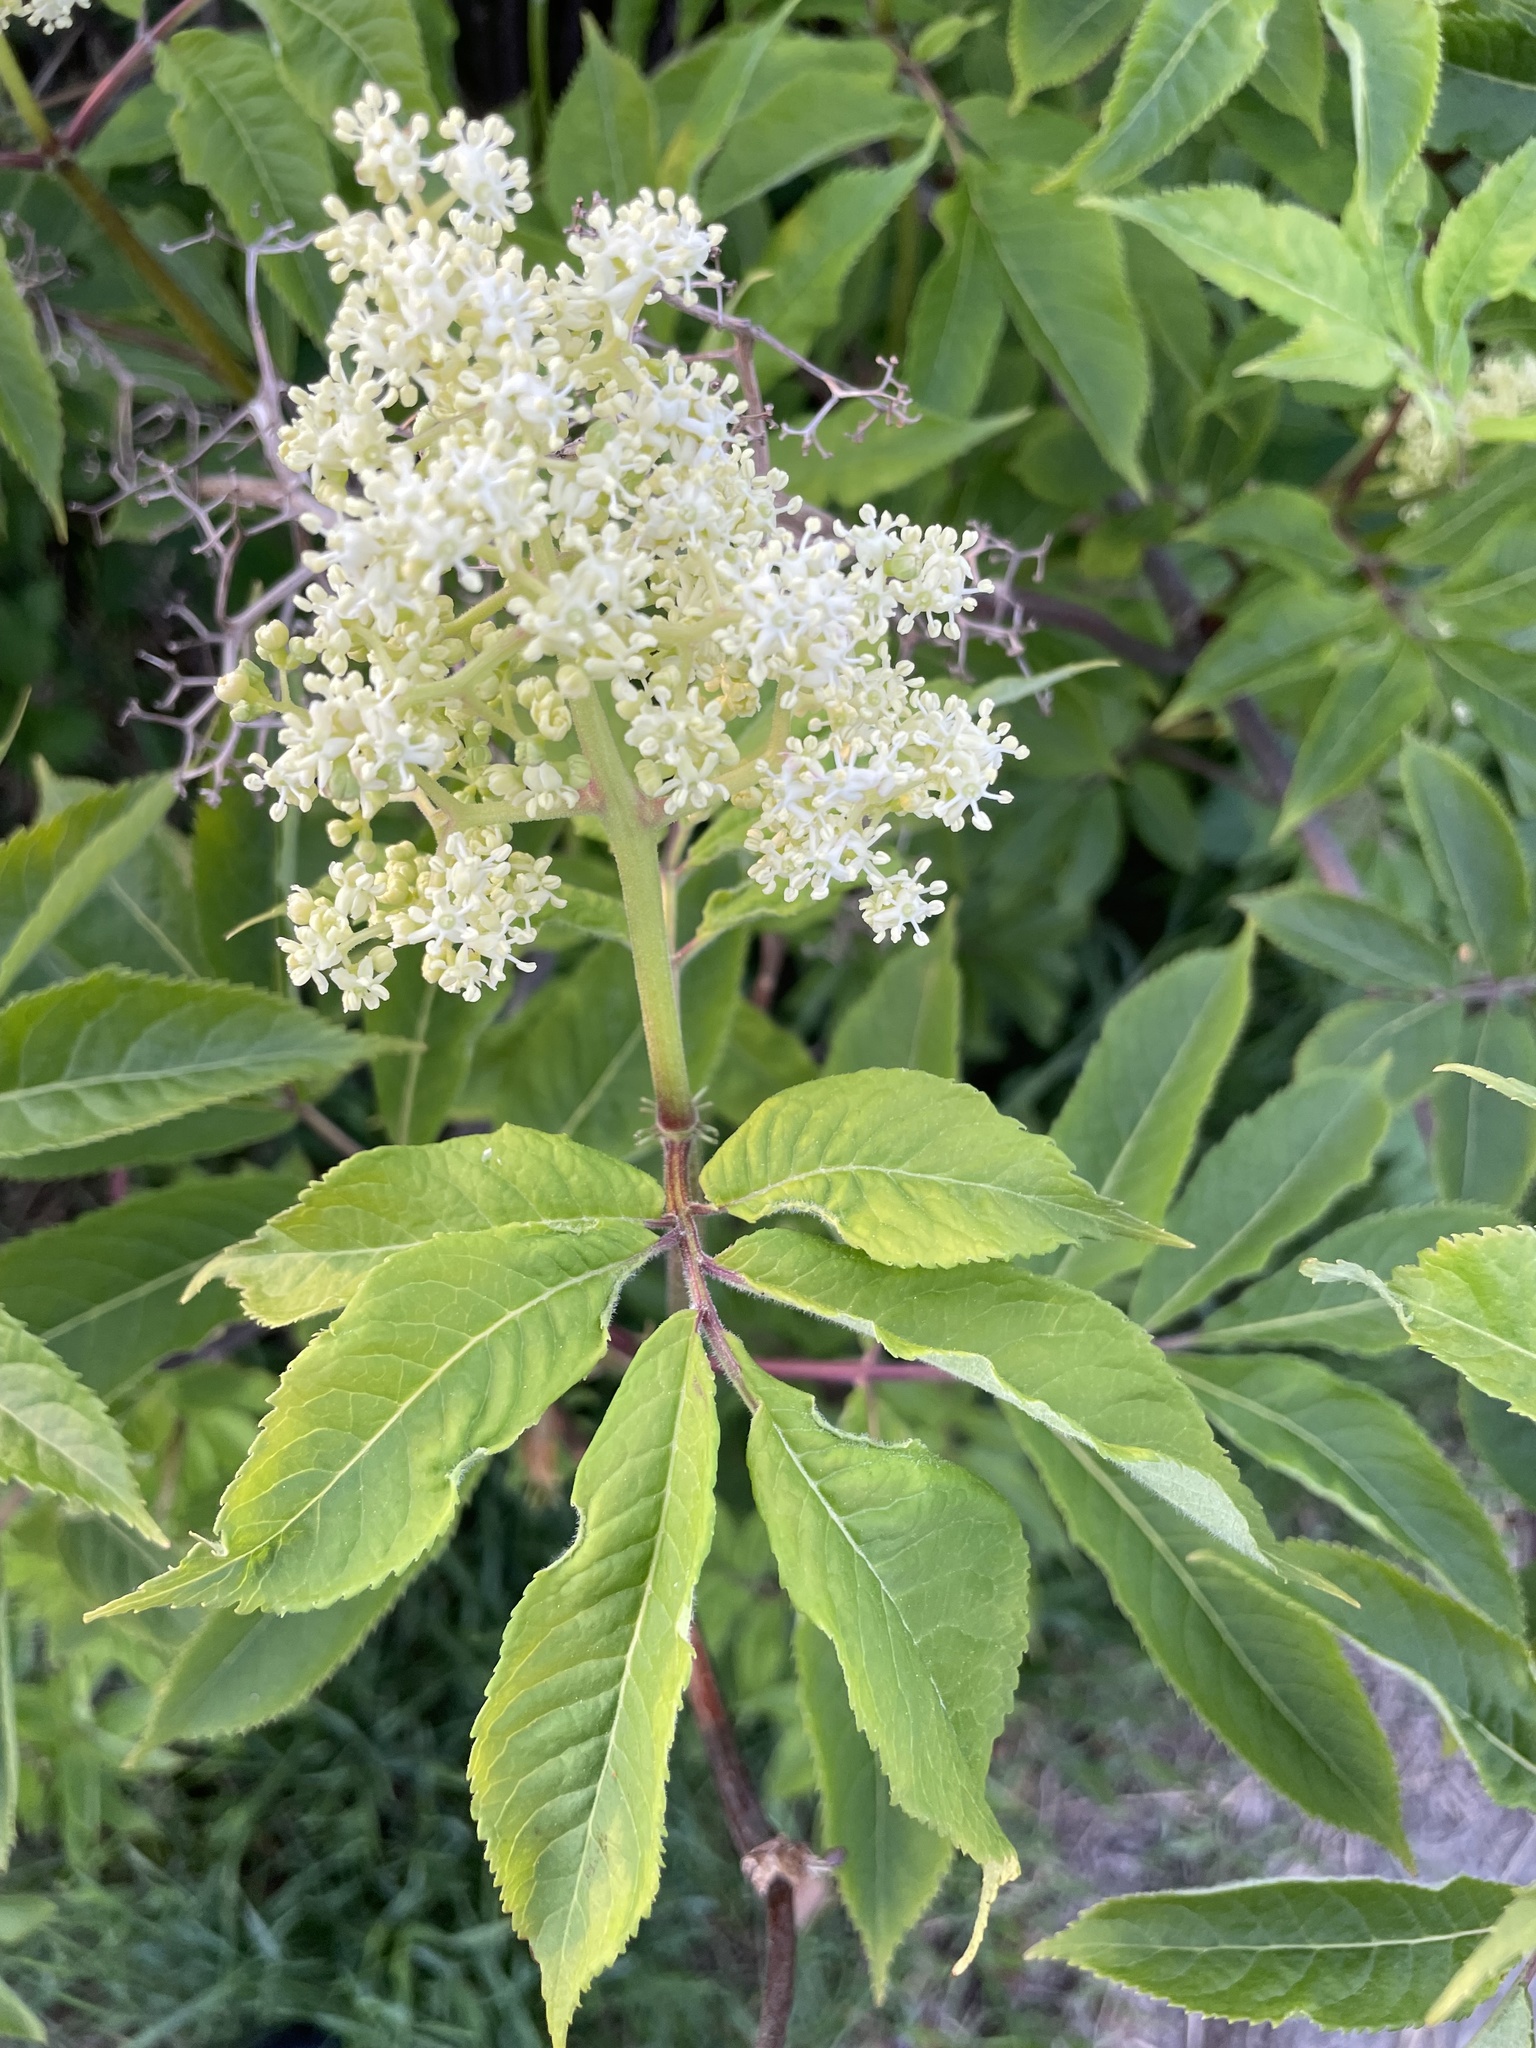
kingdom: Plantae
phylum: Tracheophyta
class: Magnoliopsida
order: Dipsacales
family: Viburnaceae
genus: Sambucus
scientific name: Sambucus racemosa
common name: Red-berried elder
